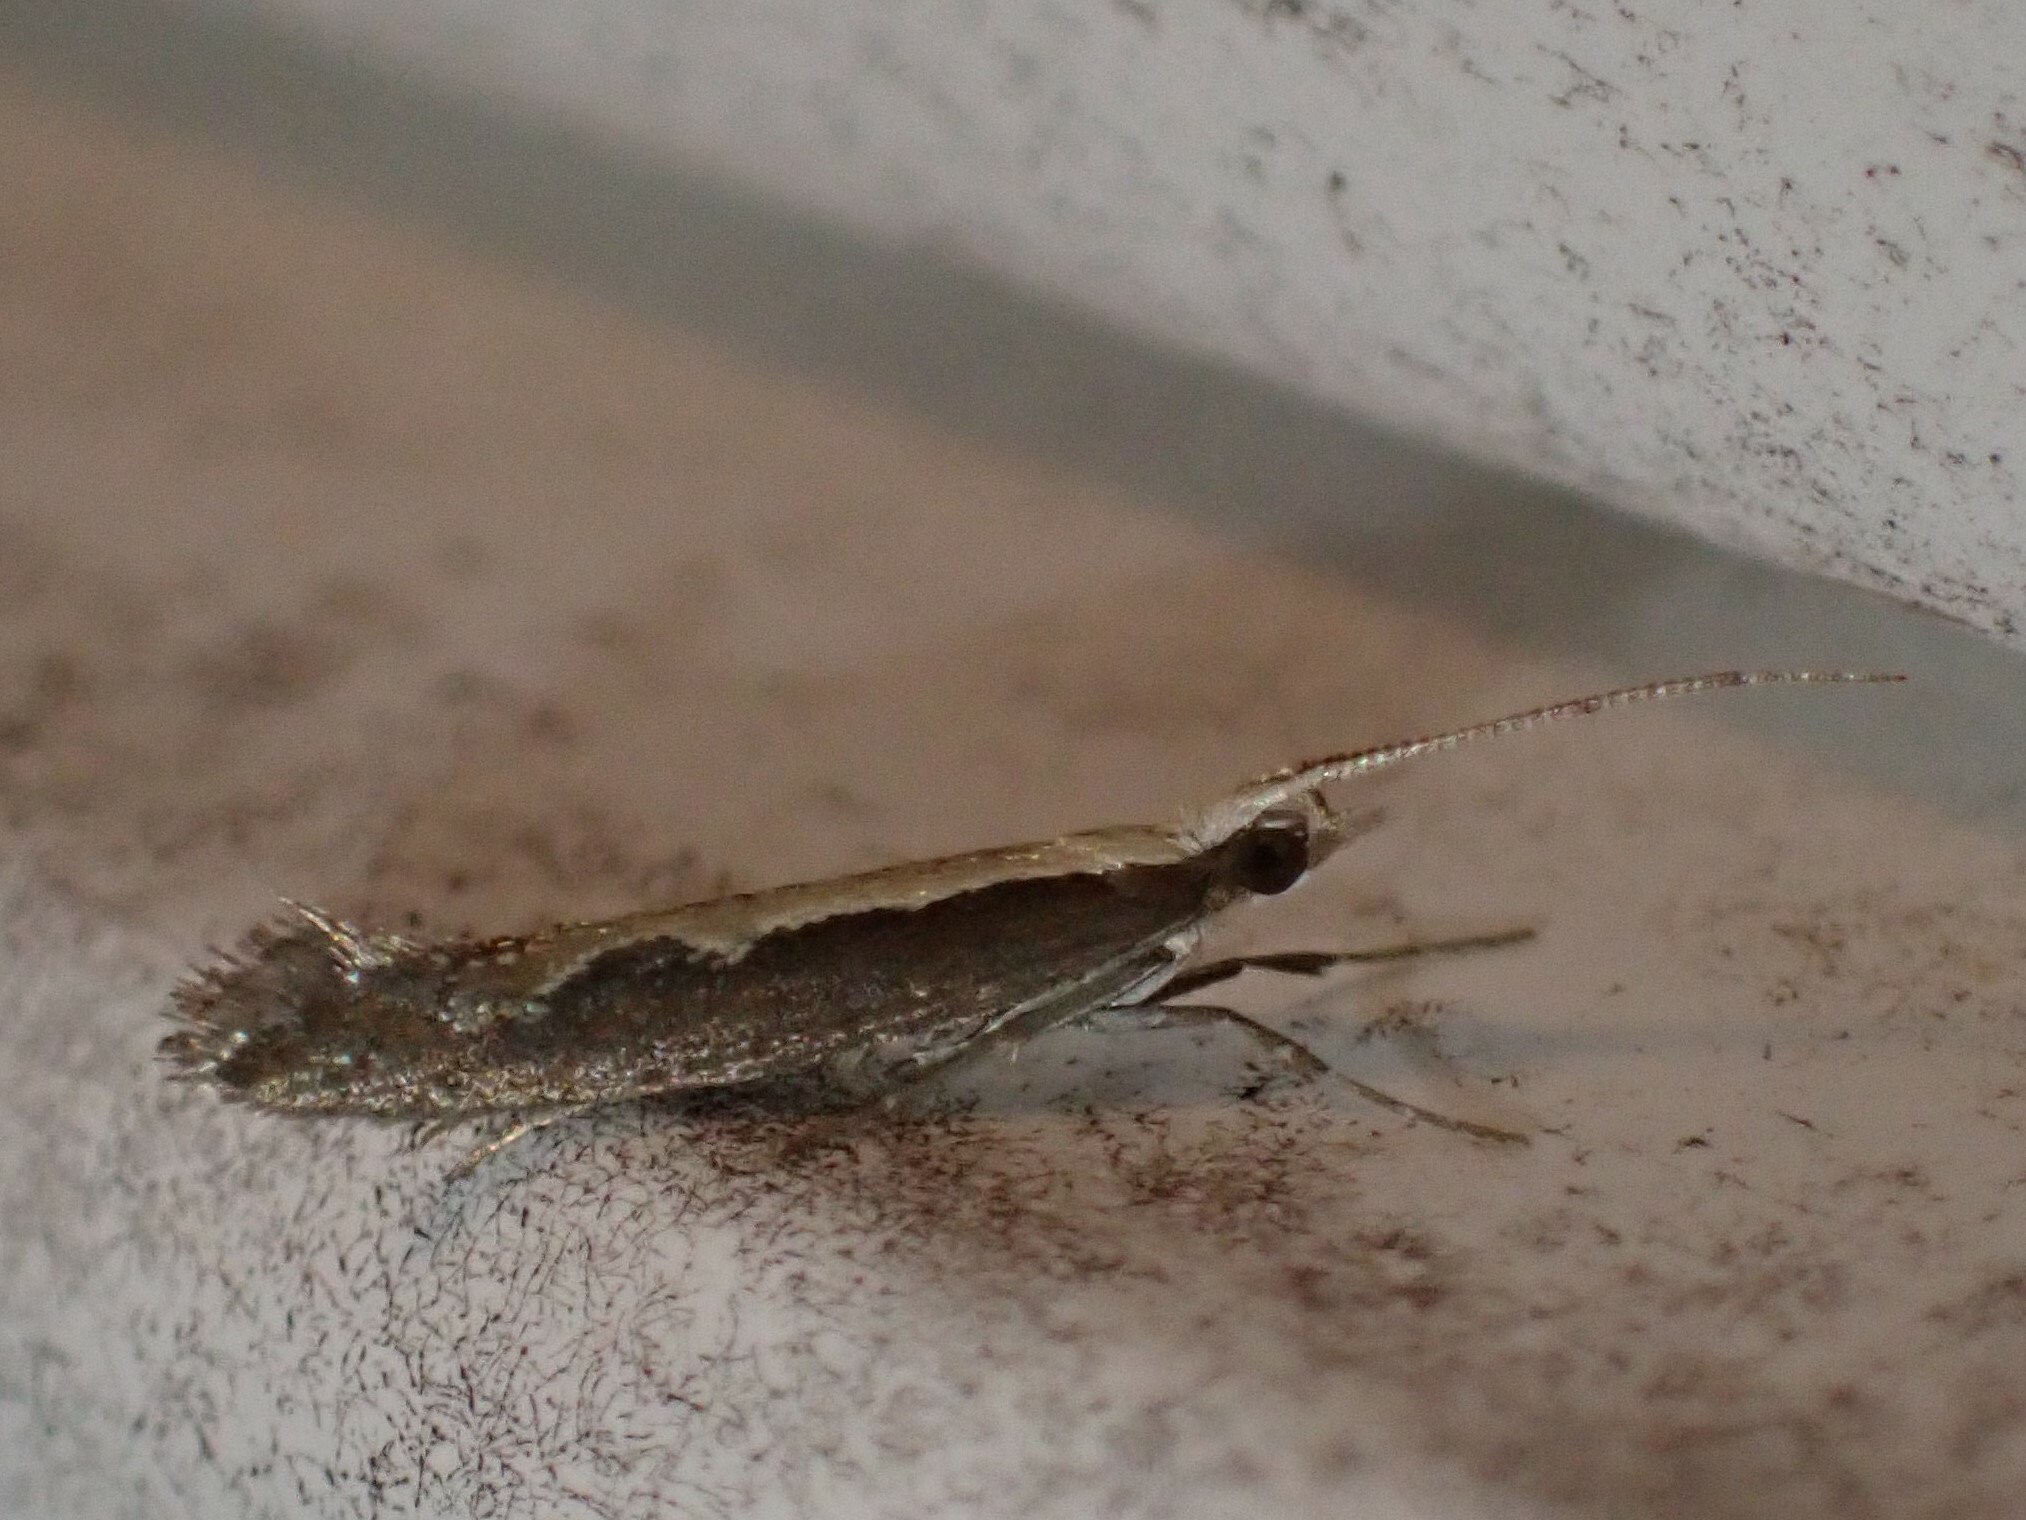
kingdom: Animalia
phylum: Arthropoda
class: Insecta
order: Lepidoptera
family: Plutellidae
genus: Plutella
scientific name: Plutella xylostella
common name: Diamond-back moth
